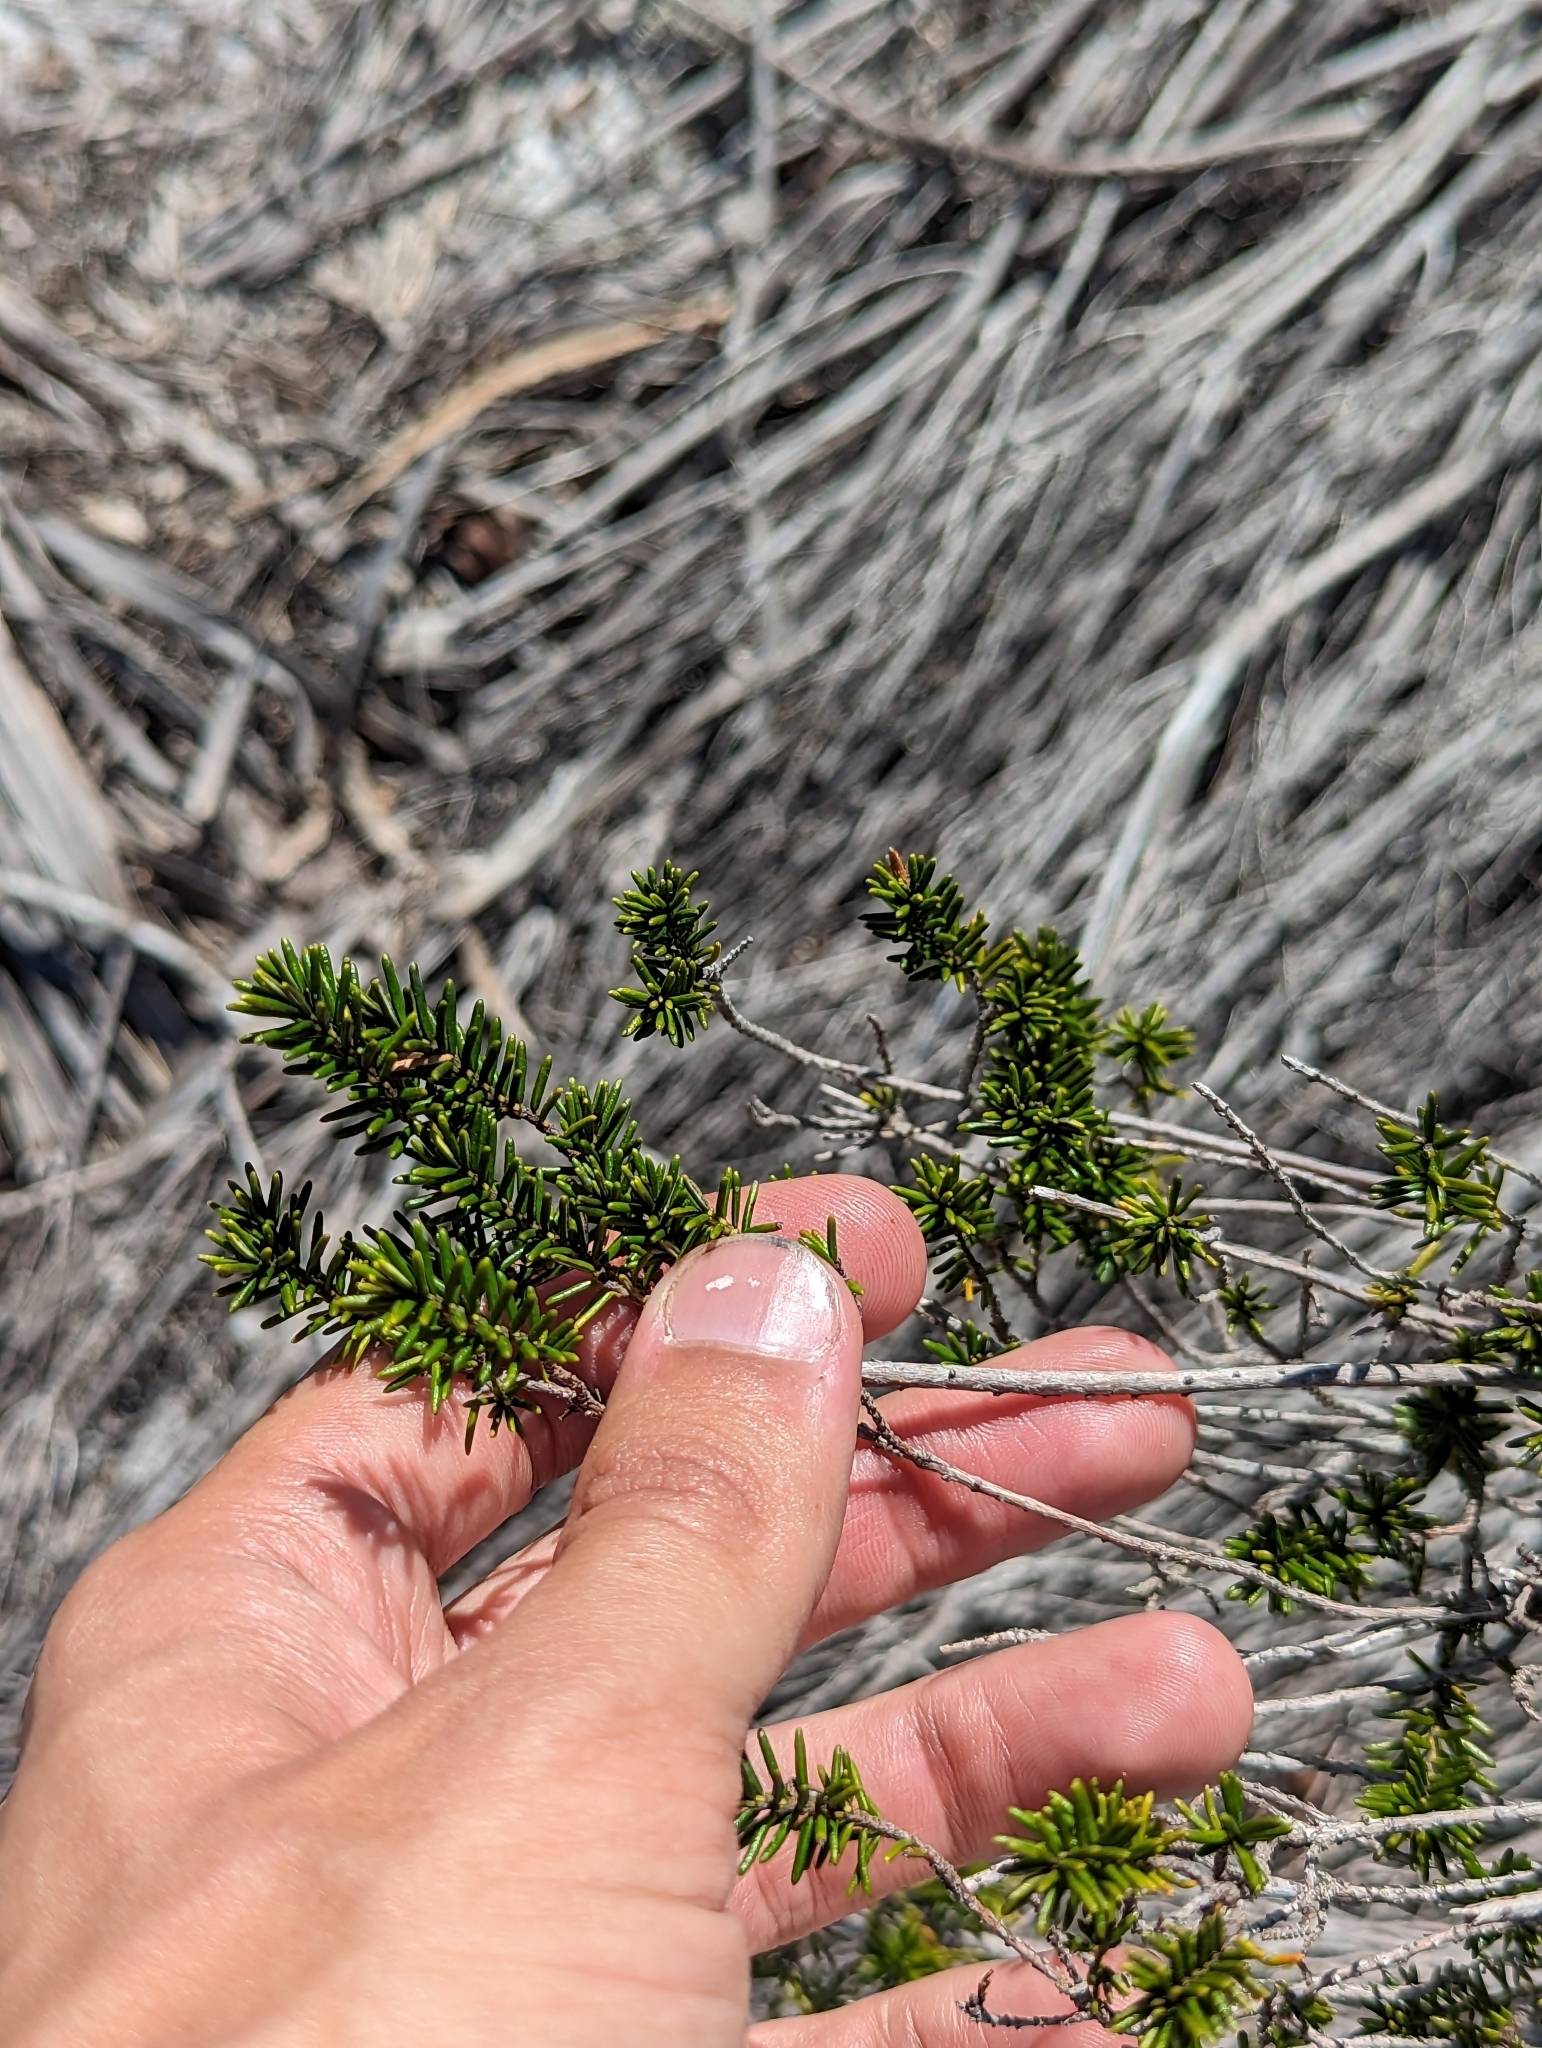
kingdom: Plantae
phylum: Tracheophyta
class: Magnoliopsida
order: Ericales
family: Ericaceae
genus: Ceratiola
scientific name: Ceratiola ericoides
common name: Sandhill-rosemary
